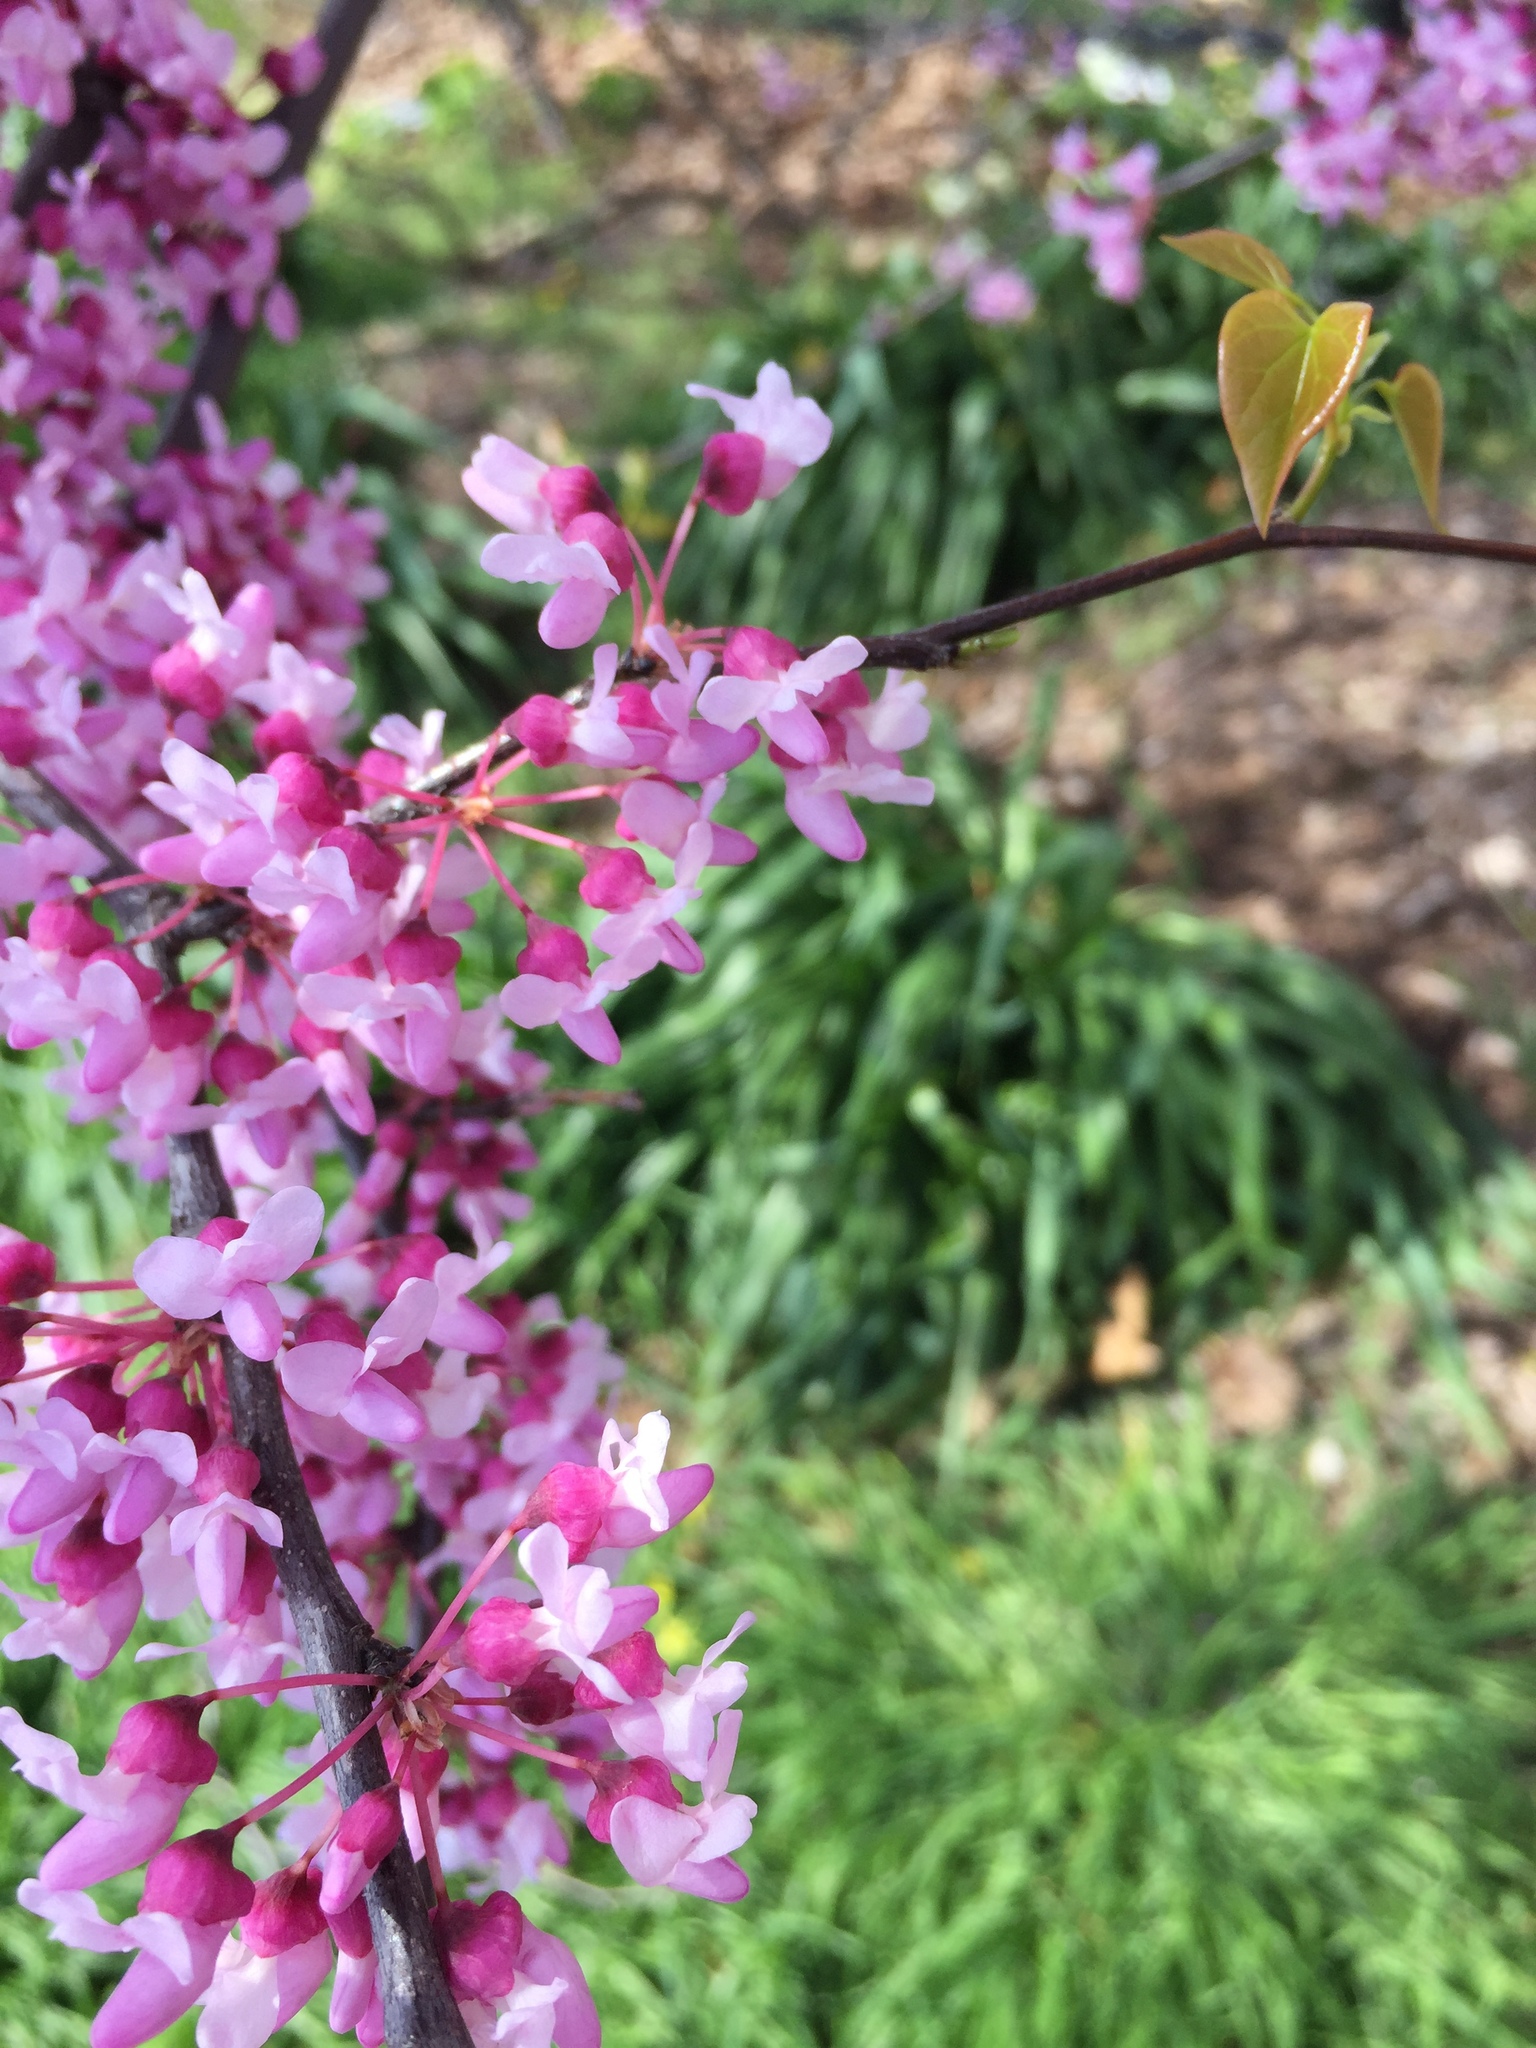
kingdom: Plantae
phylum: Tracheophyta
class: Magnoliopsida
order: Fabales
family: Fabaceae
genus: Cercis
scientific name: Cercis canadensis
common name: Eastern redbud
